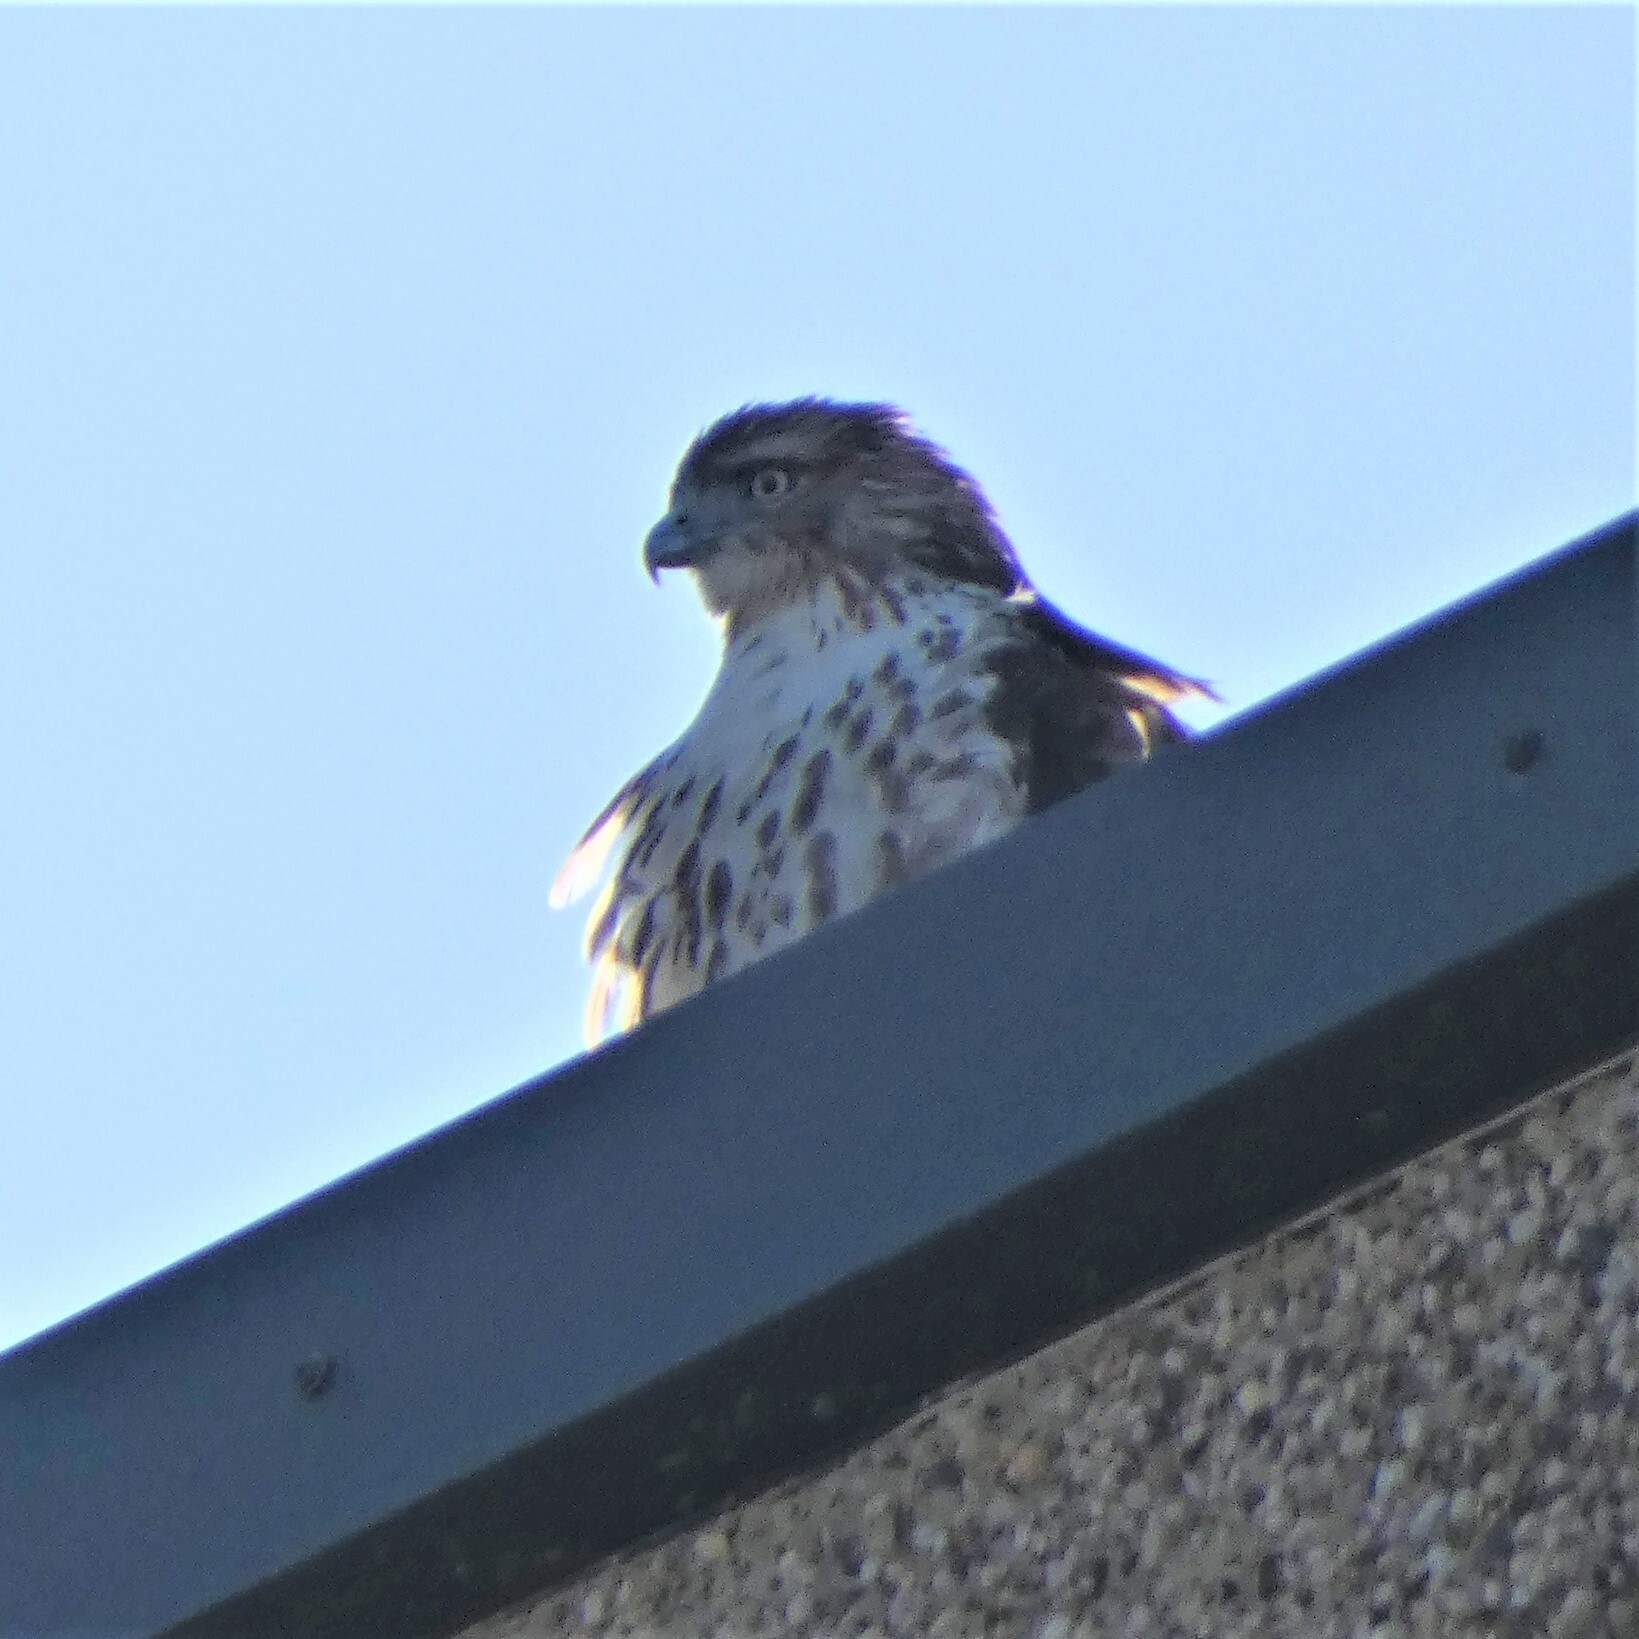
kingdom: Animalia
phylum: Chordata
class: Aves
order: Accipitriformes
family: Accipitridae
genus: Buteo
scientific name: Buteo jamaicensis
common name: Red-tailed hawk
